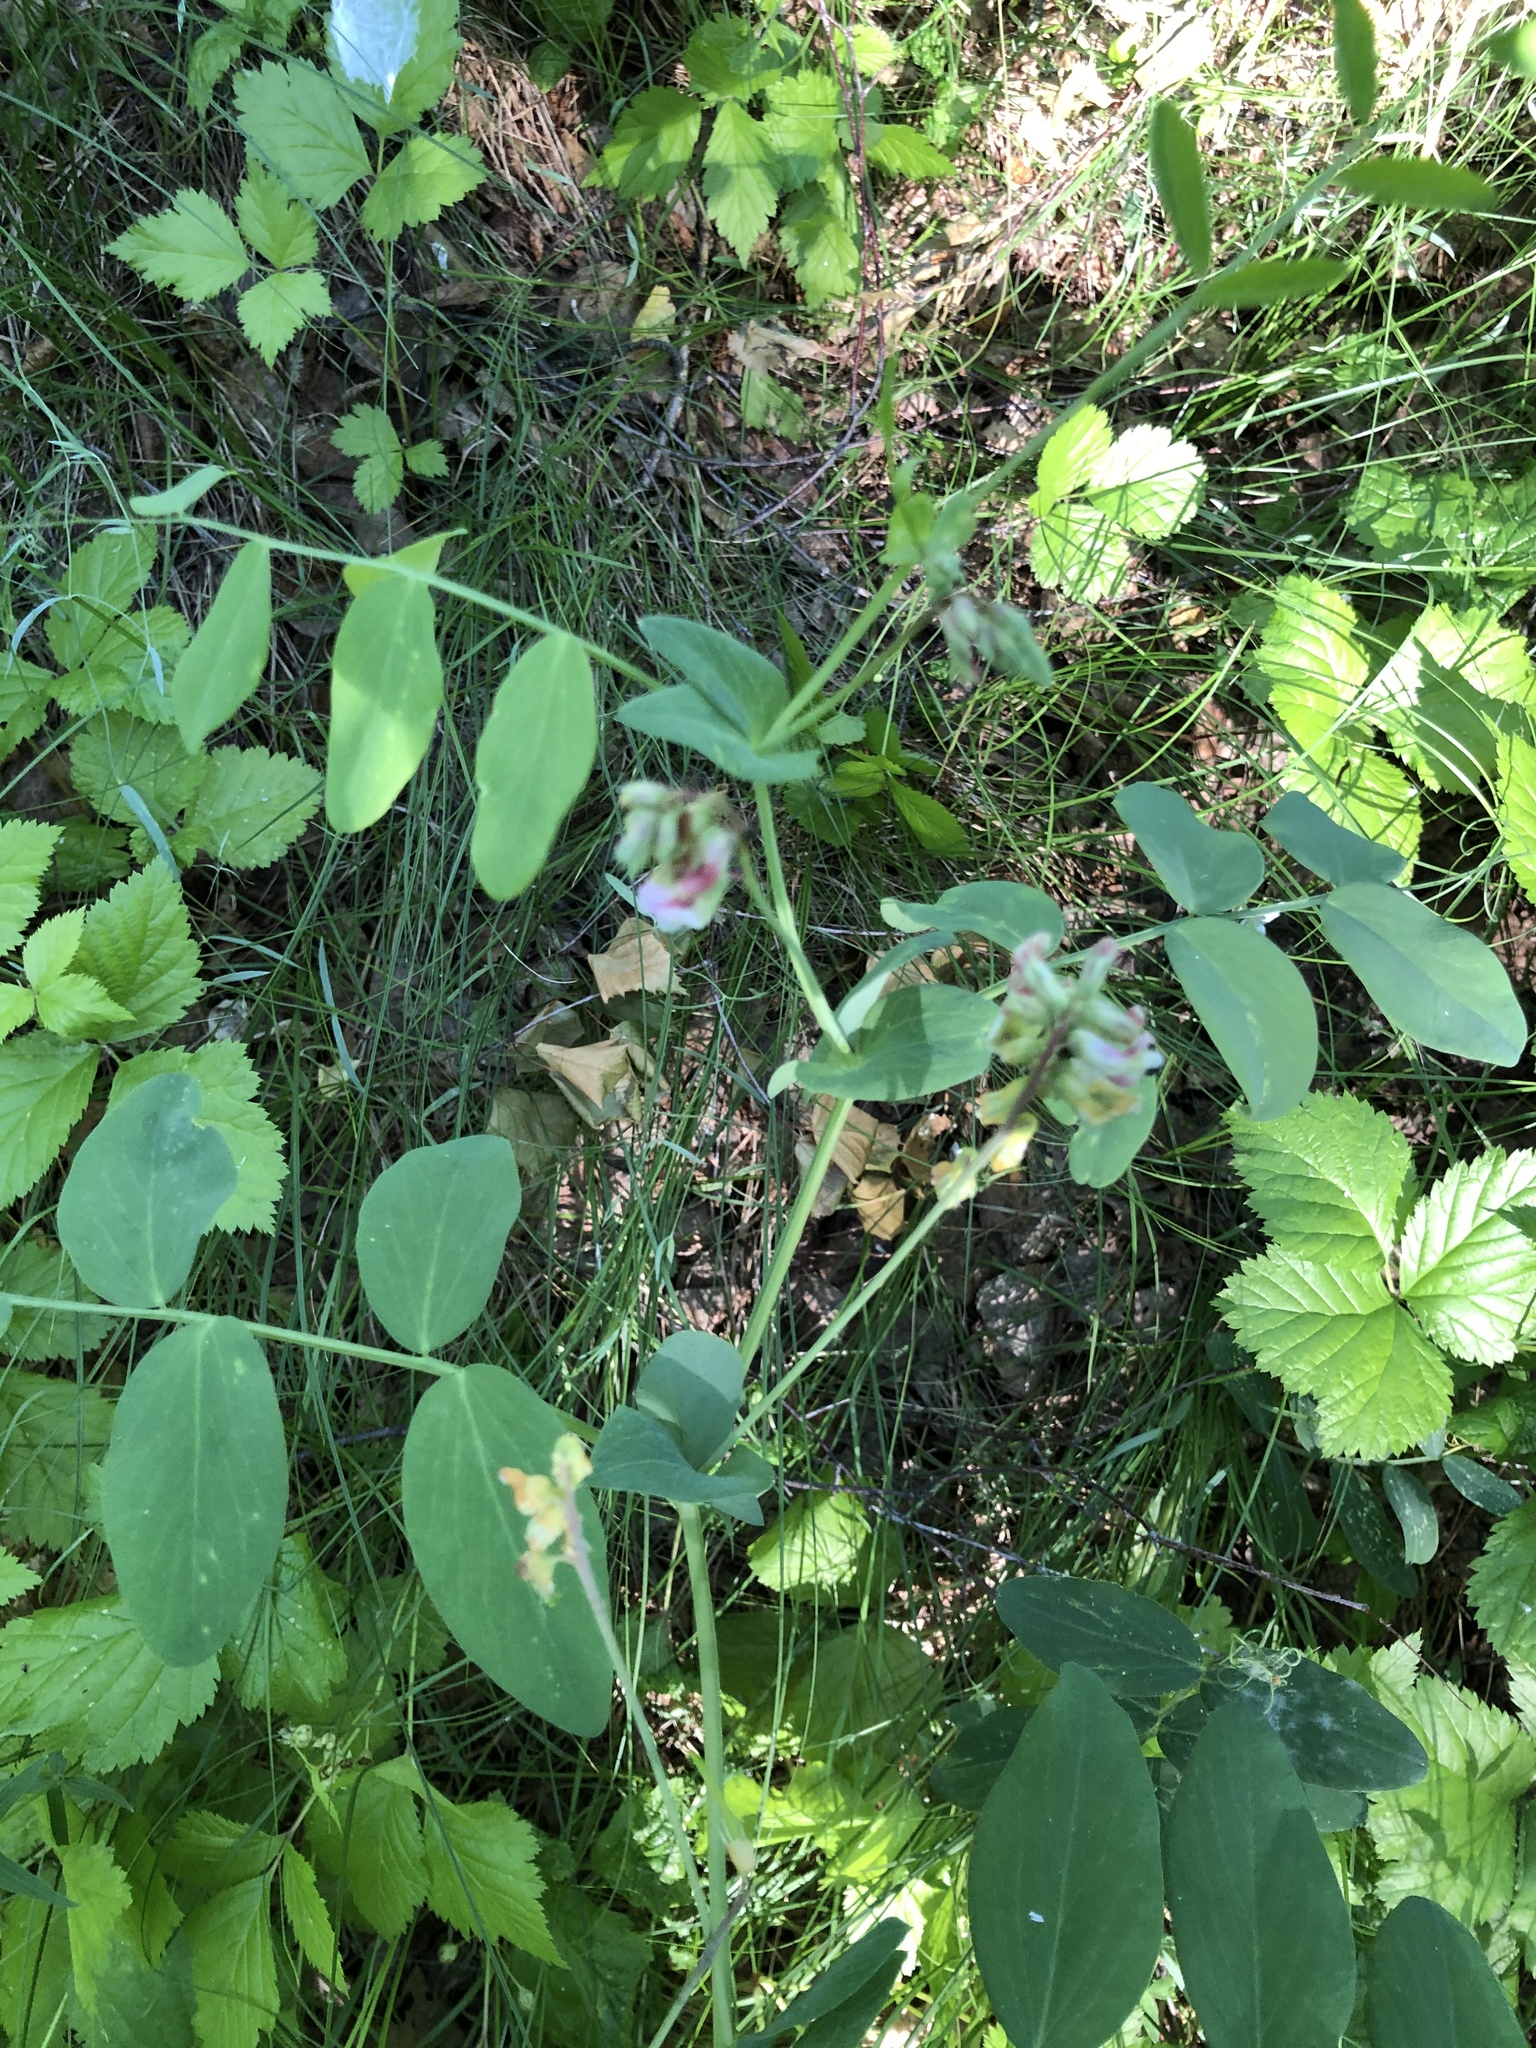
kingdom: Plantae
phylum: Tracheophyta
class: Magnoliopsida
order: Fabales
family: Fabaceae
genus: Lathyrus
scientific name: Lathyrus pisiformis
